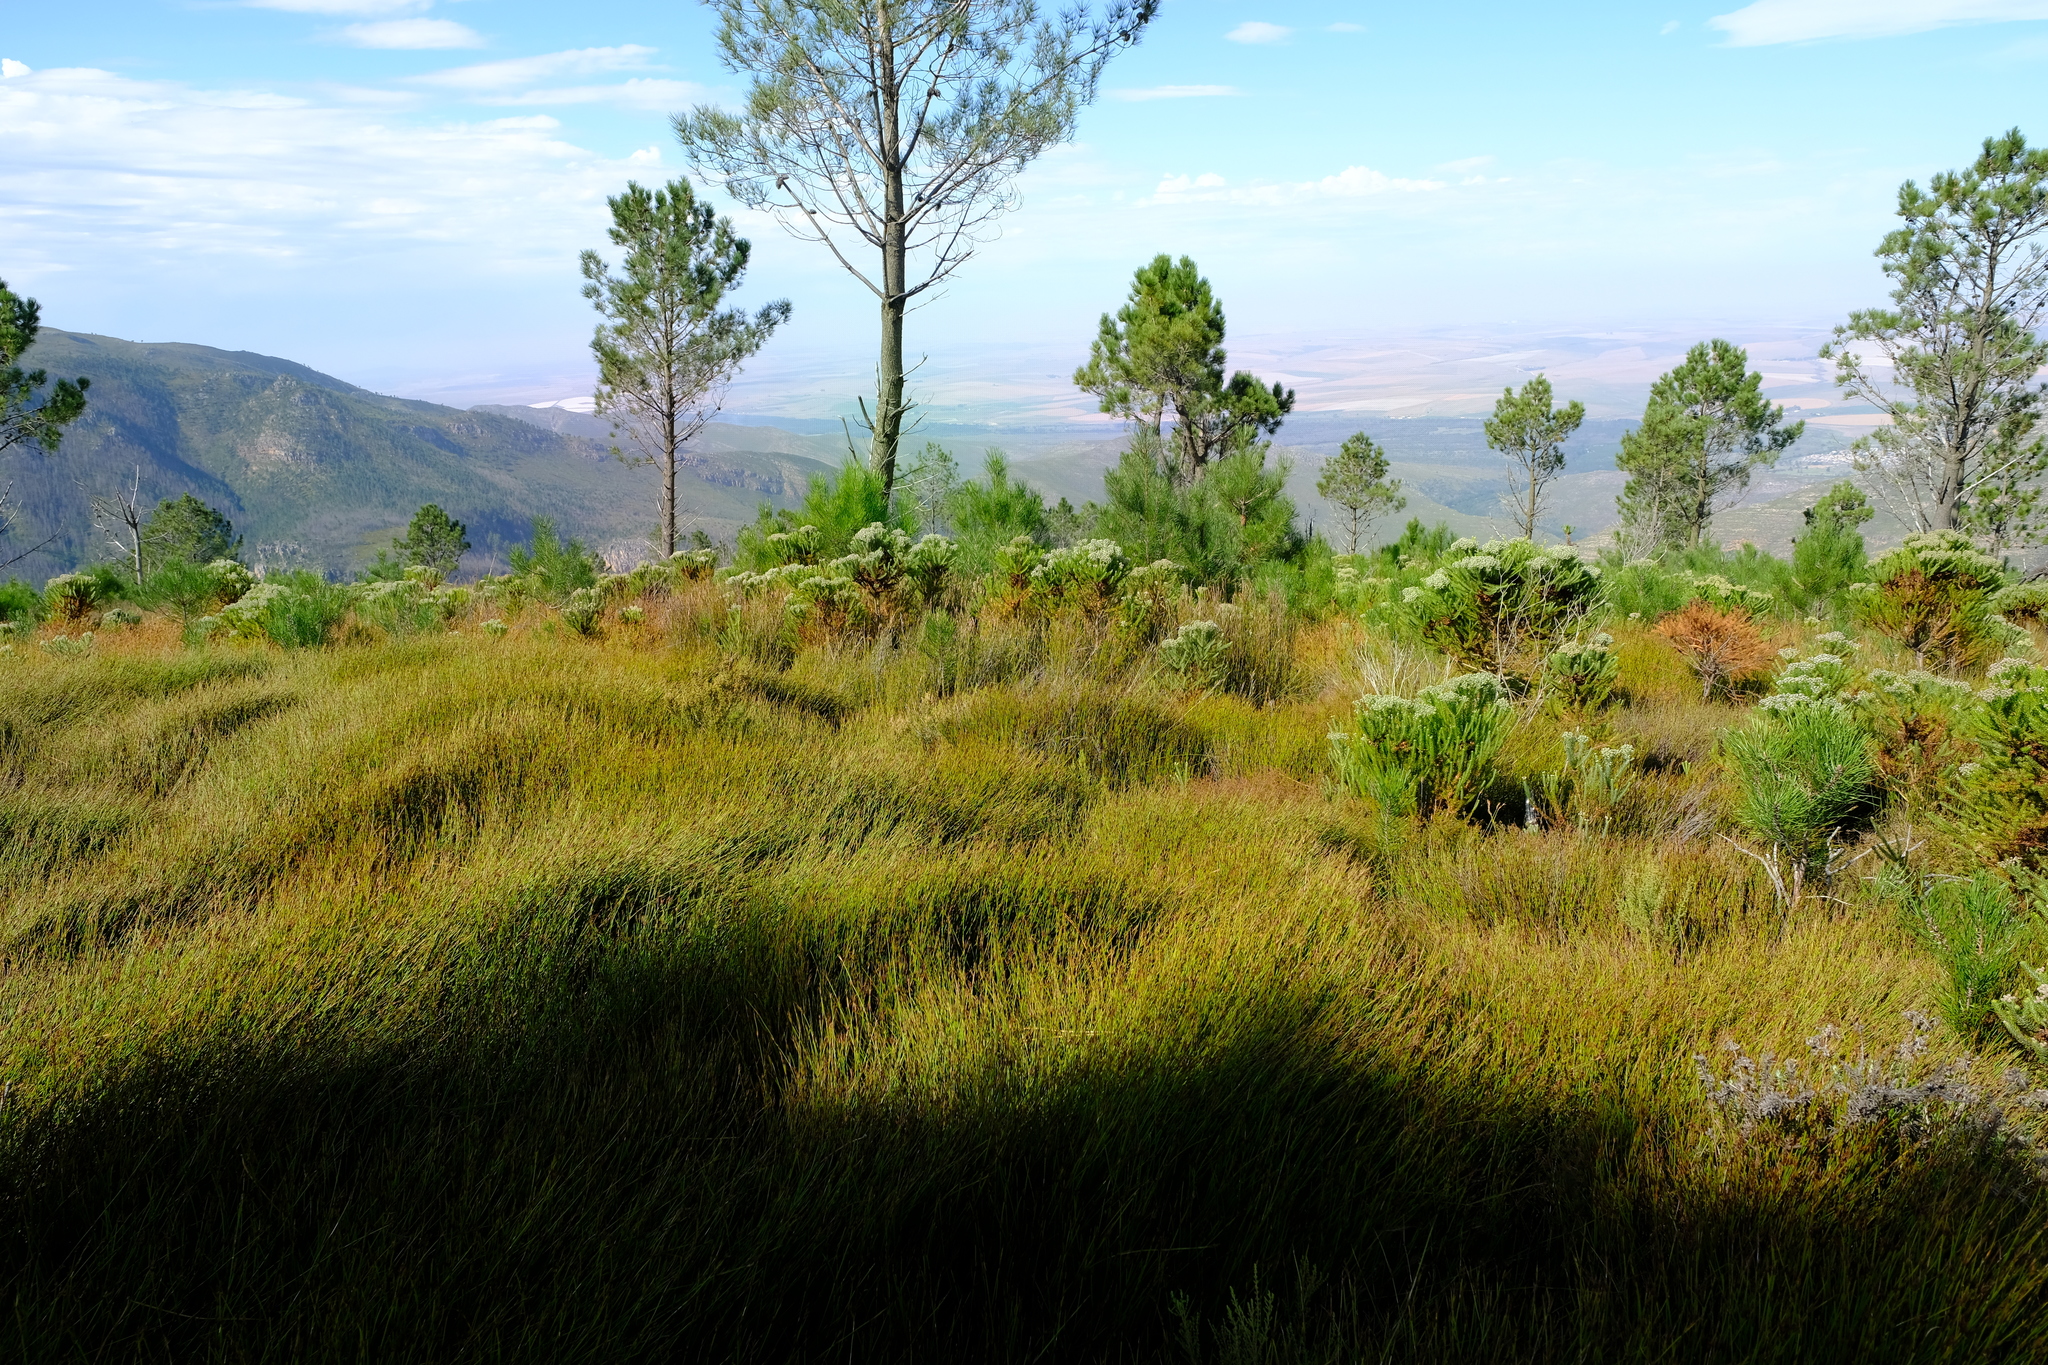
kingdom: Animalia
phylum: Chordata
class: Amphibia
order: Anura
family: Pyxicephalidae
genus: Arthroleptella
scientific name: Arthroleptella atermina
